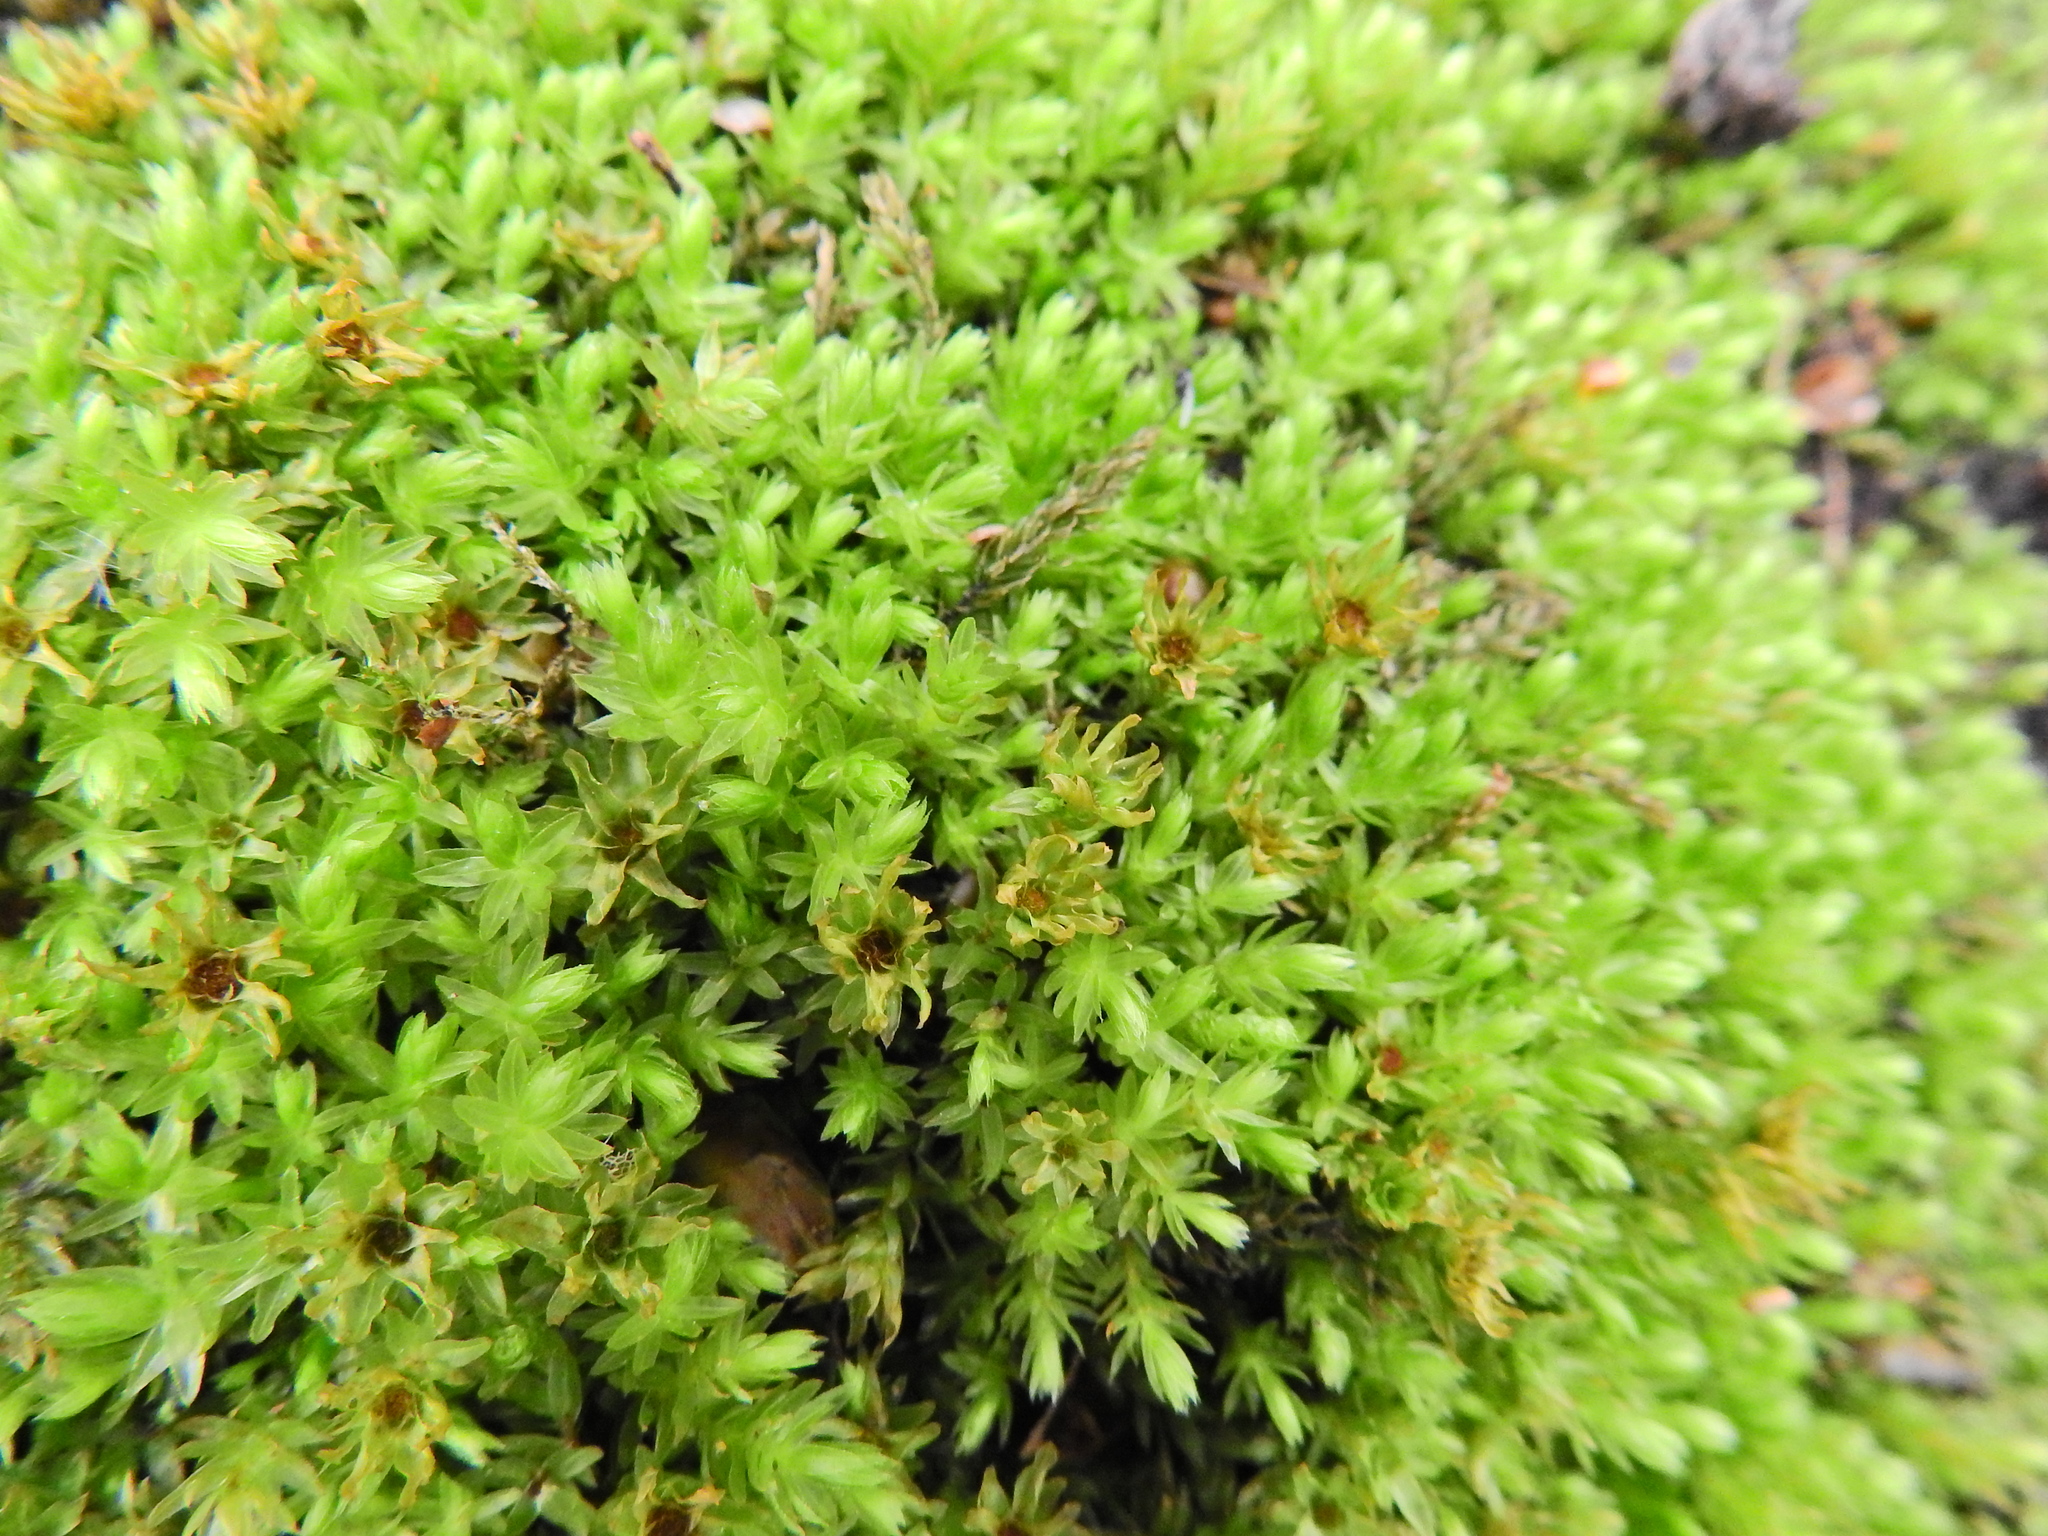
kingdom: Plantae
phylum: Bryophyta
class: Bryopsida
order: Bryales
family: Mniaceae
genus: Mnium
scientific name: Mnium hornum
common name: Swan's-neck leafy moss
